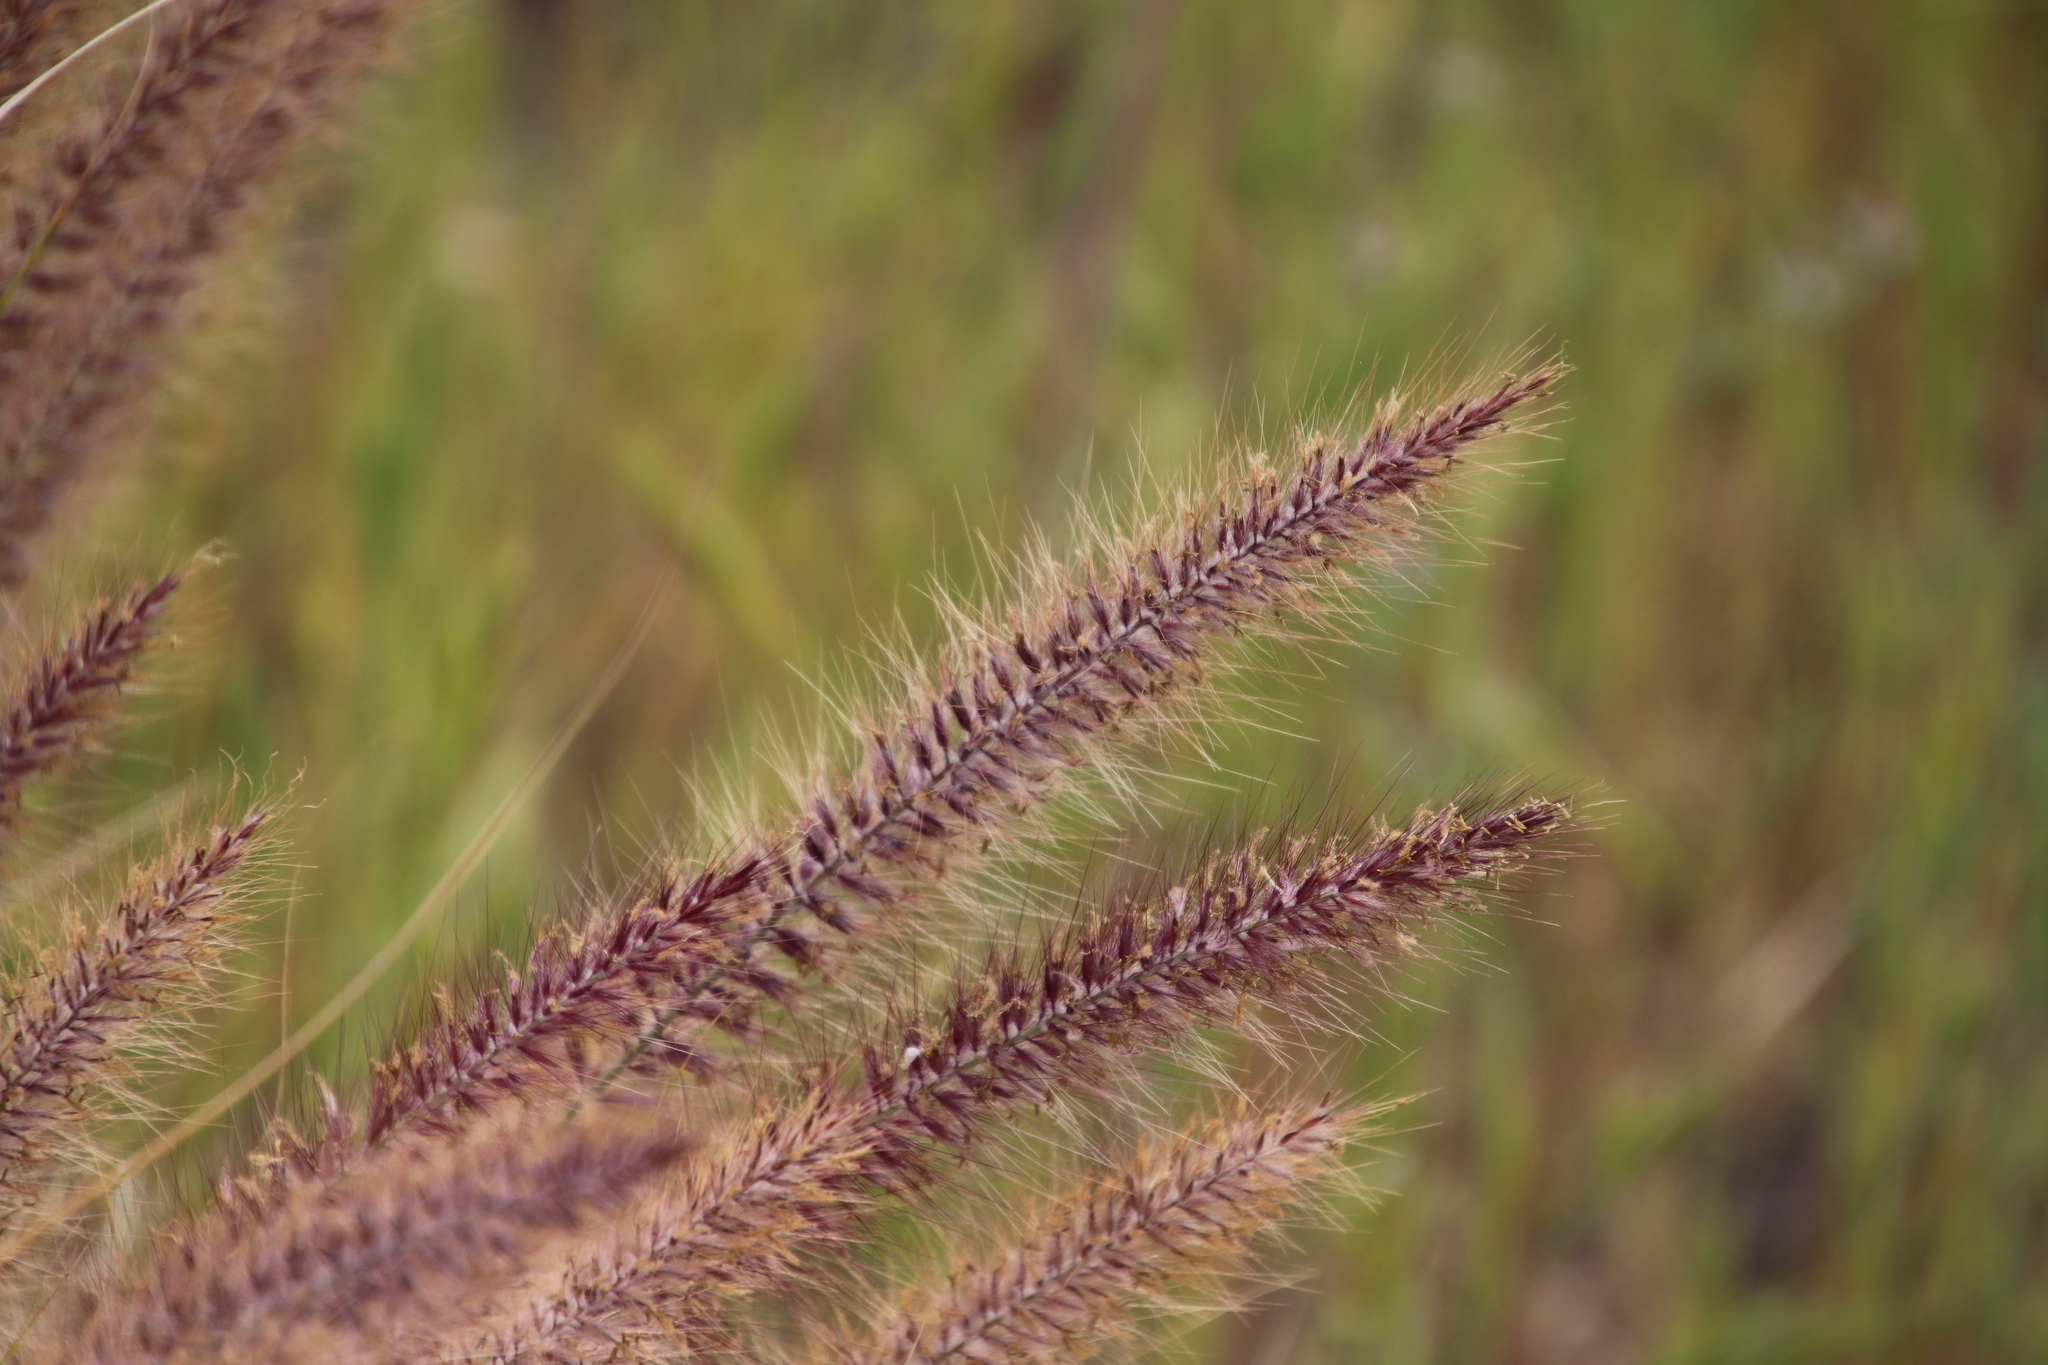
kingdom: Plantae
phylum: Tracheophyta
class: Liliopsida
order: Poales
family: Poaceae
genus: Cenchrus
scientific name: Cenchrus setaceus
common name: Crimson fountaingrass
